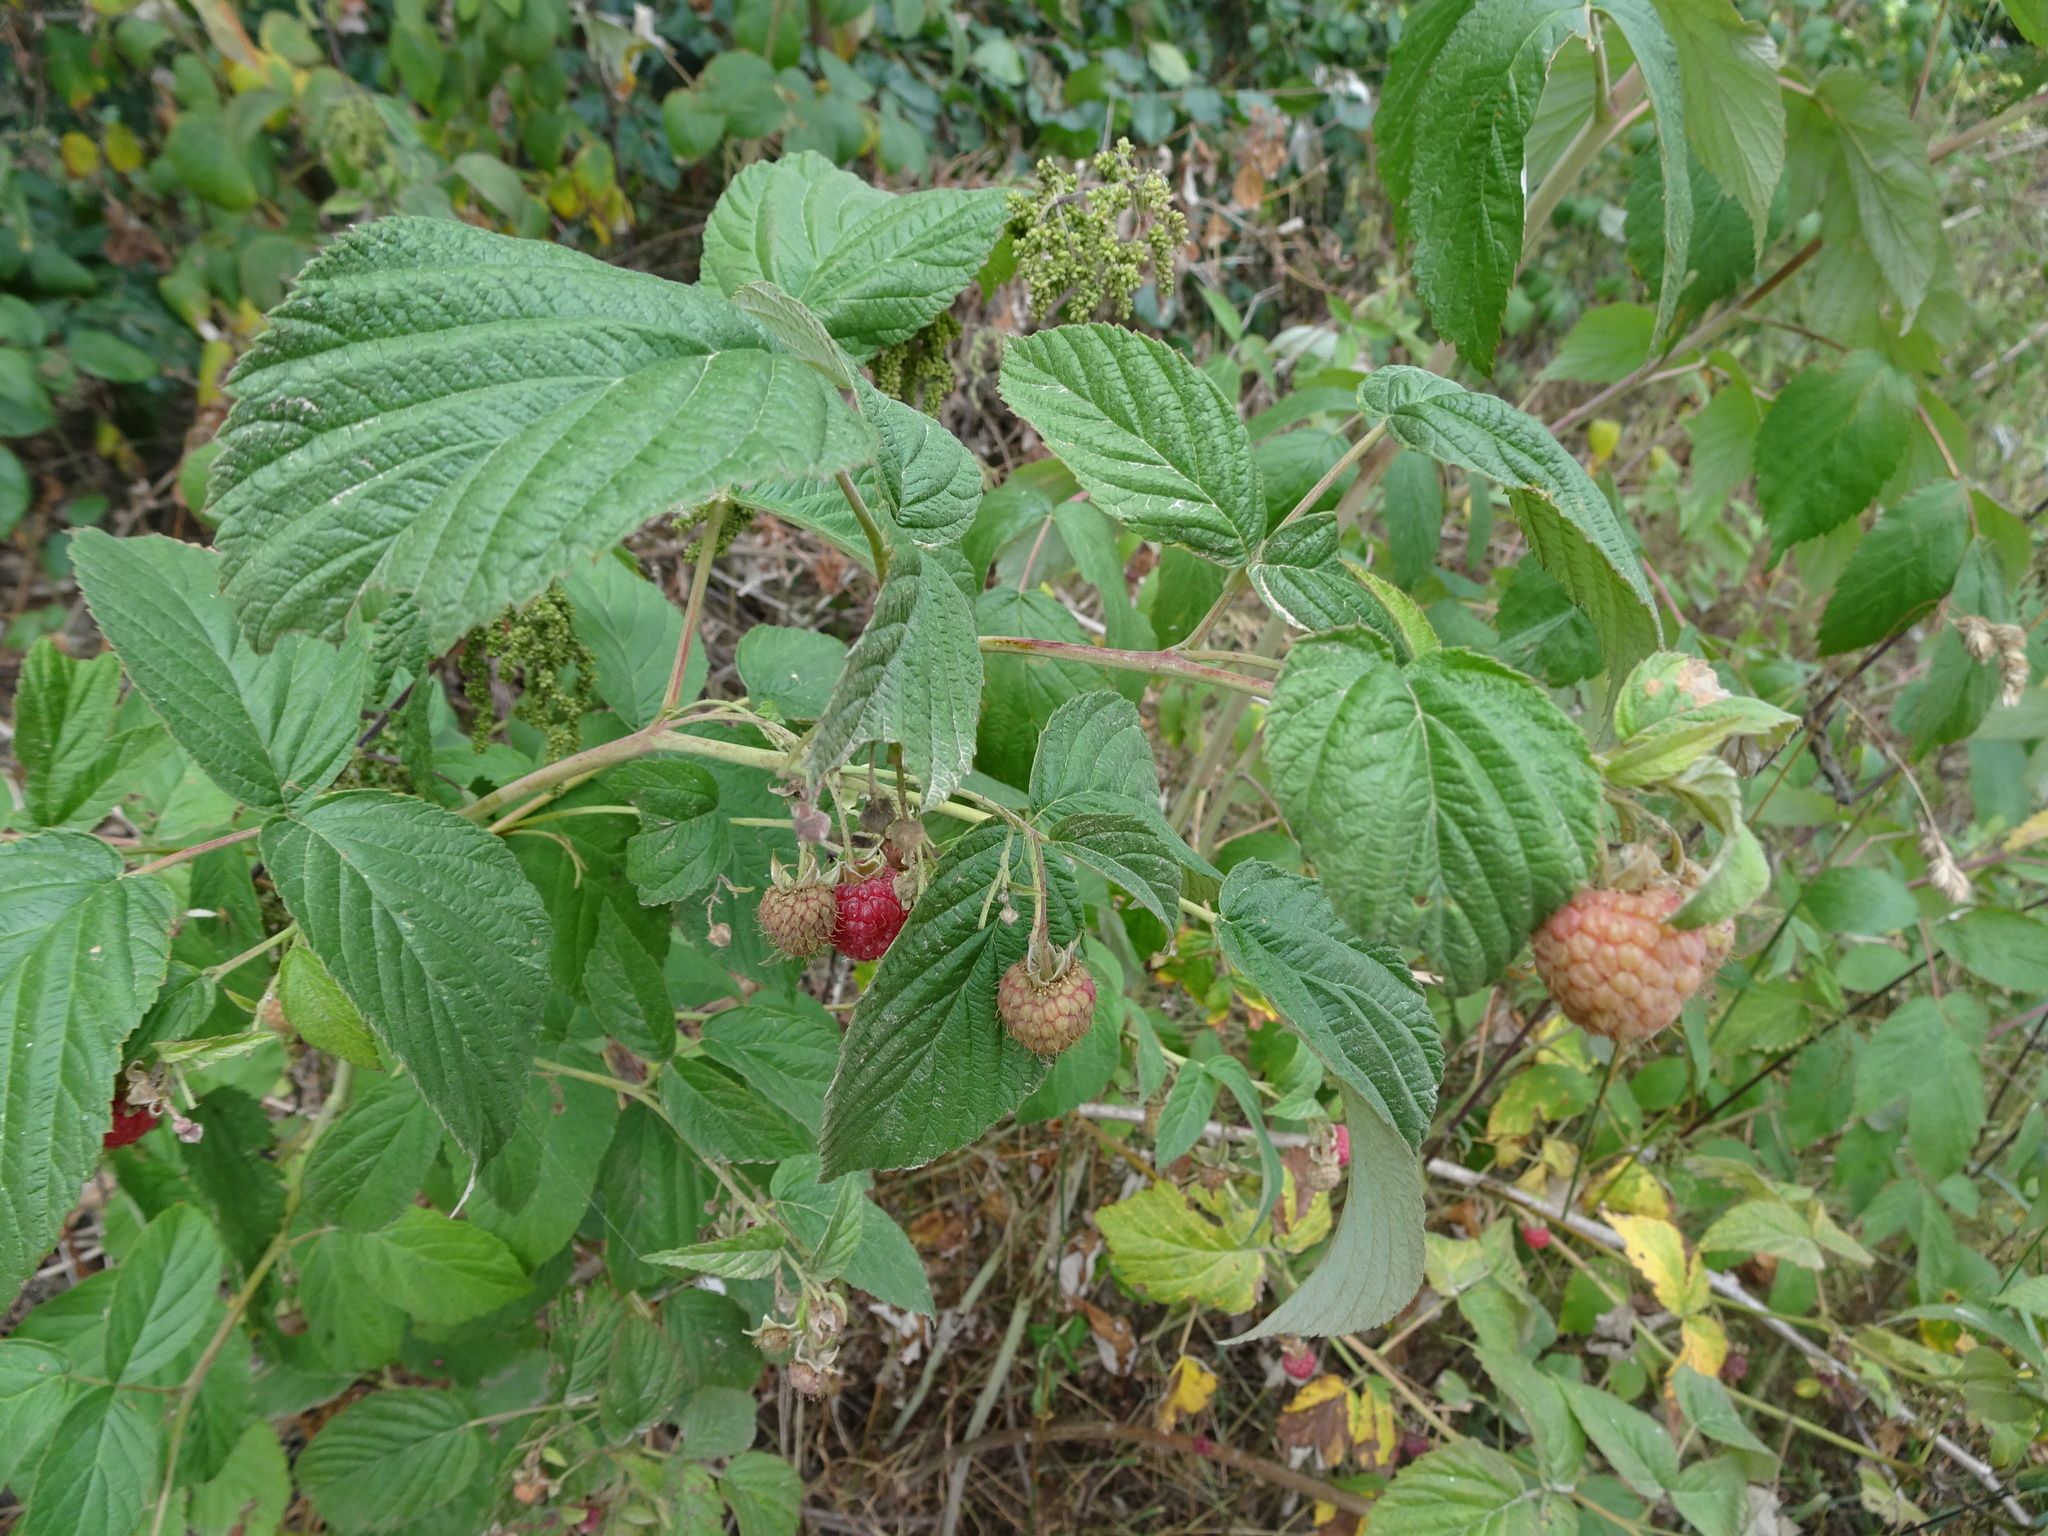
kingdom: Plantae
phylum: Tracheophyta
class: Magnoliopsida
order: Rosales
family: Rosaceae
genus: Rubus
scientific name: Rubus idaeus
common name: Raspberry
